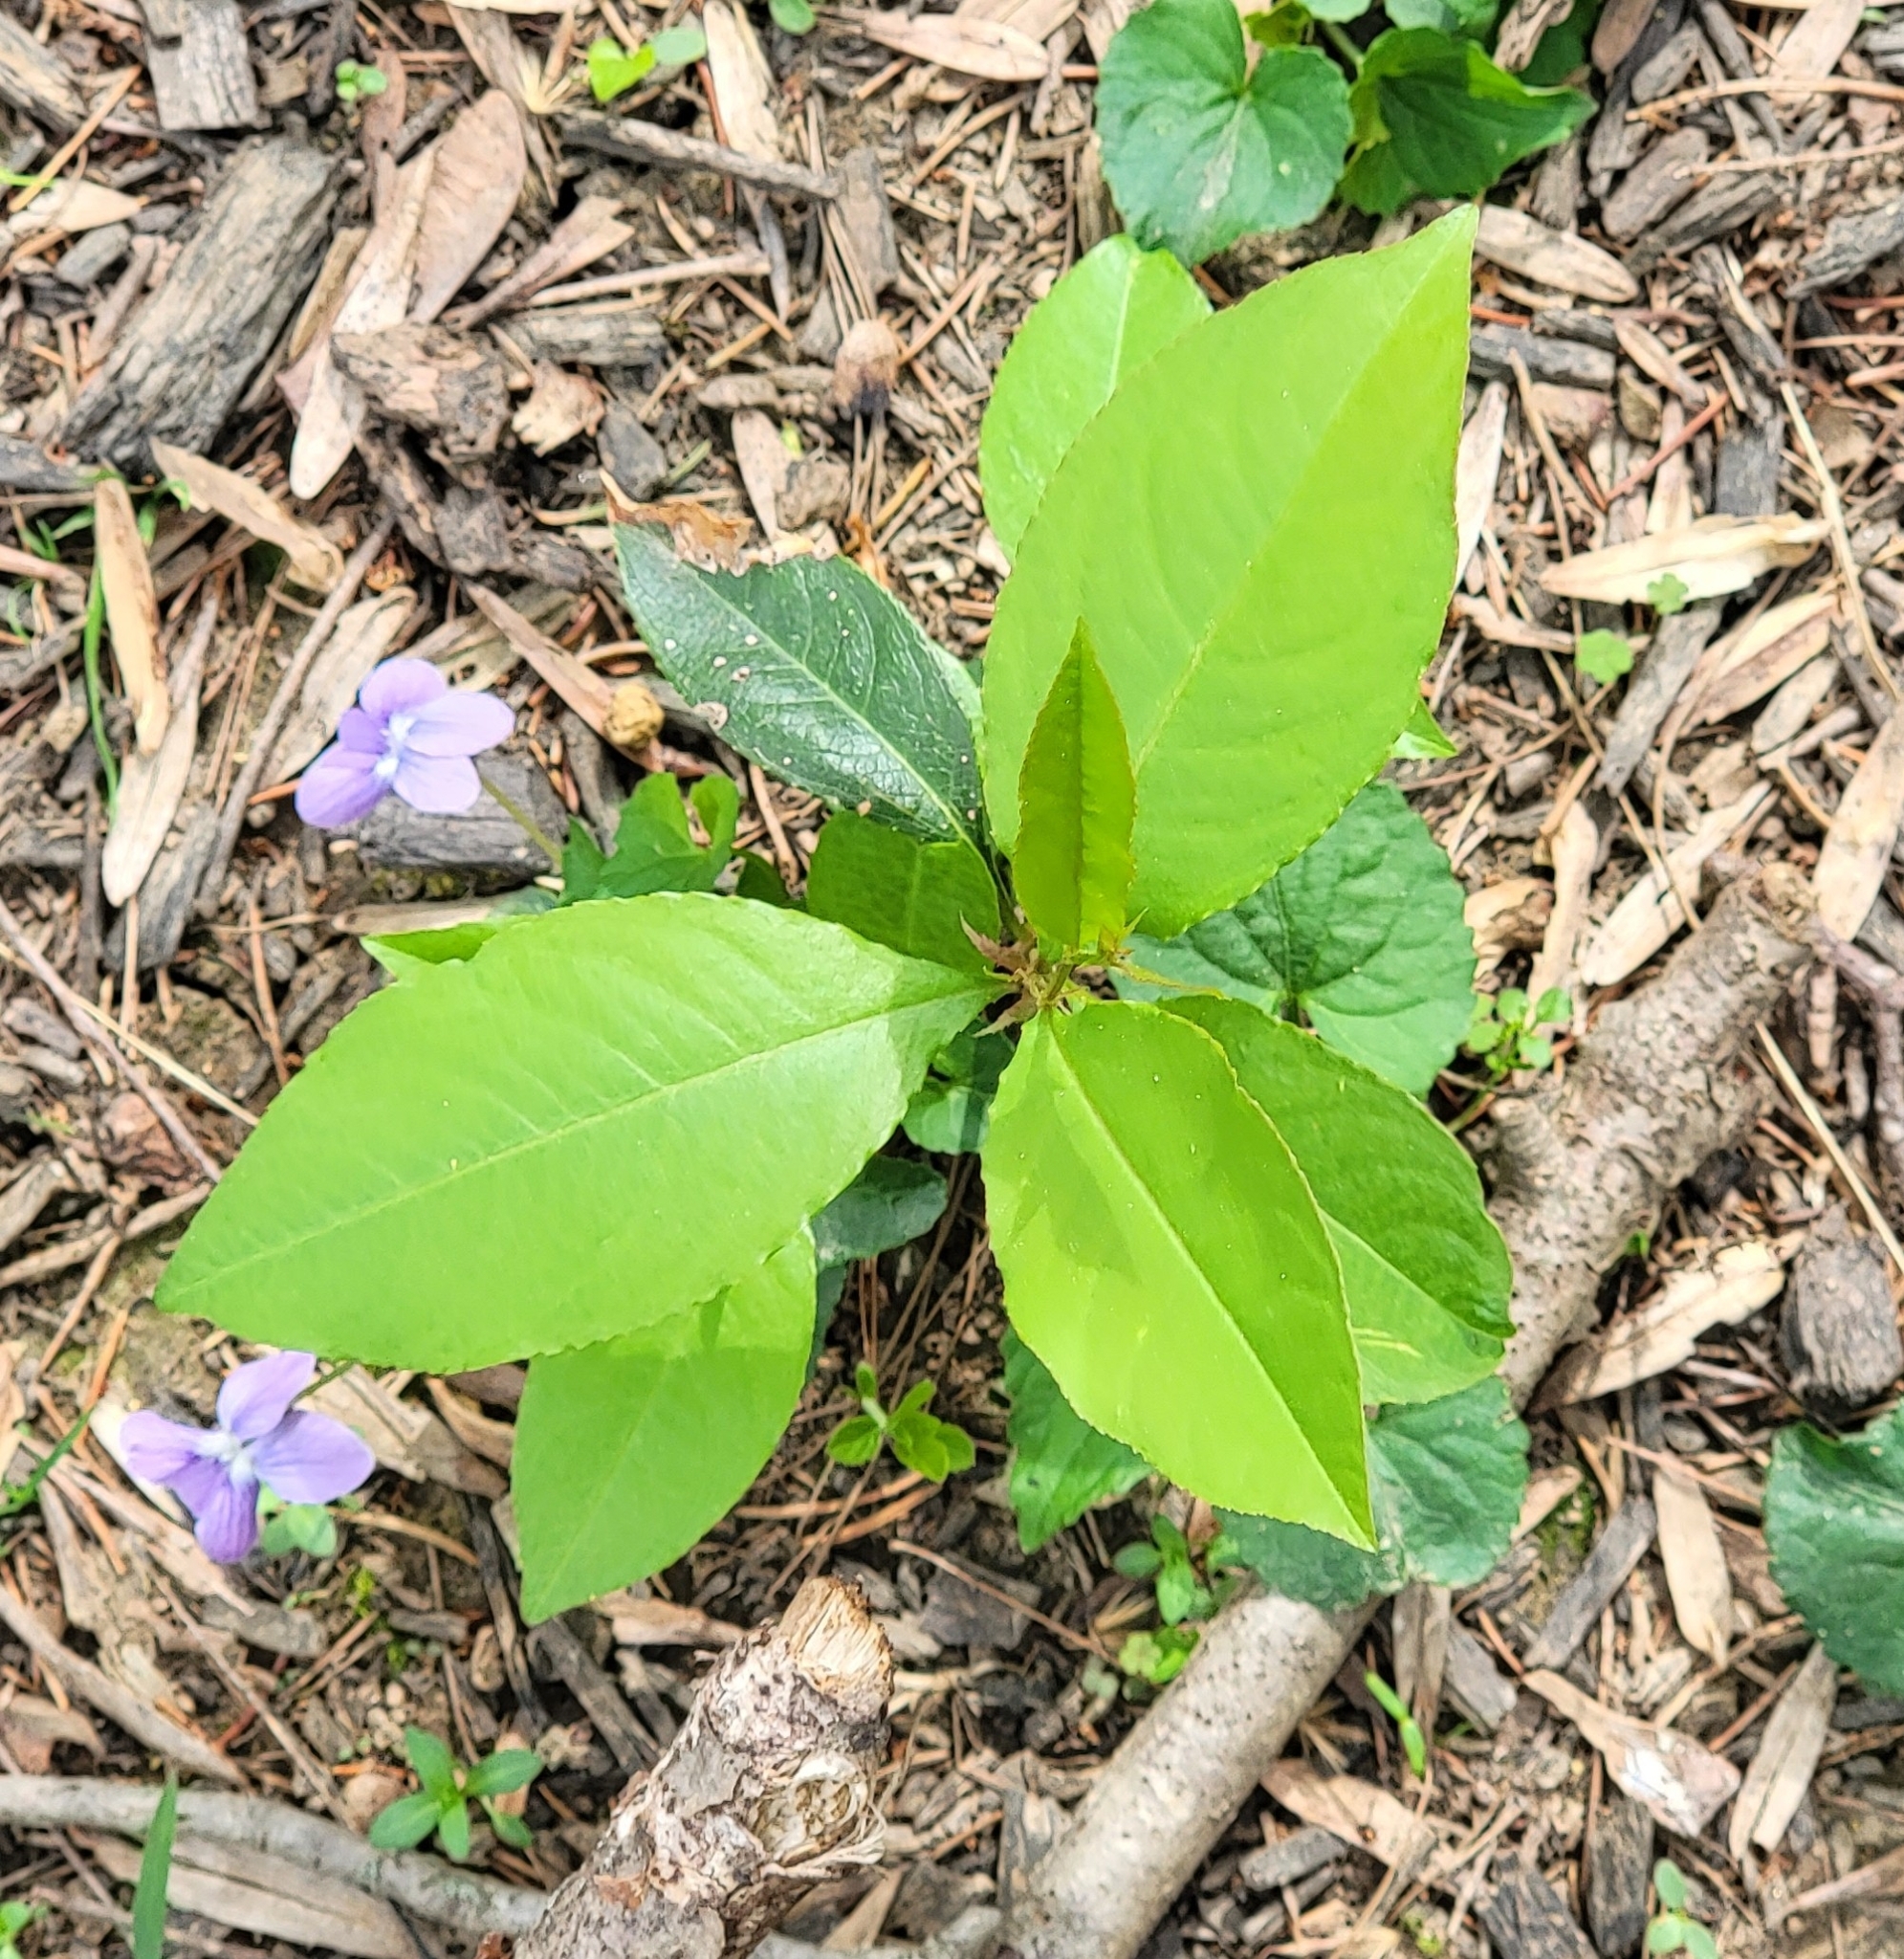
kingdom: Plantae
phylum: Tracheophyta
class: Magnoliopsida
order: Rosales
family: Rosaceae
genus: Prunus
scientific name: Prunus serotina
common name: Black cherry
